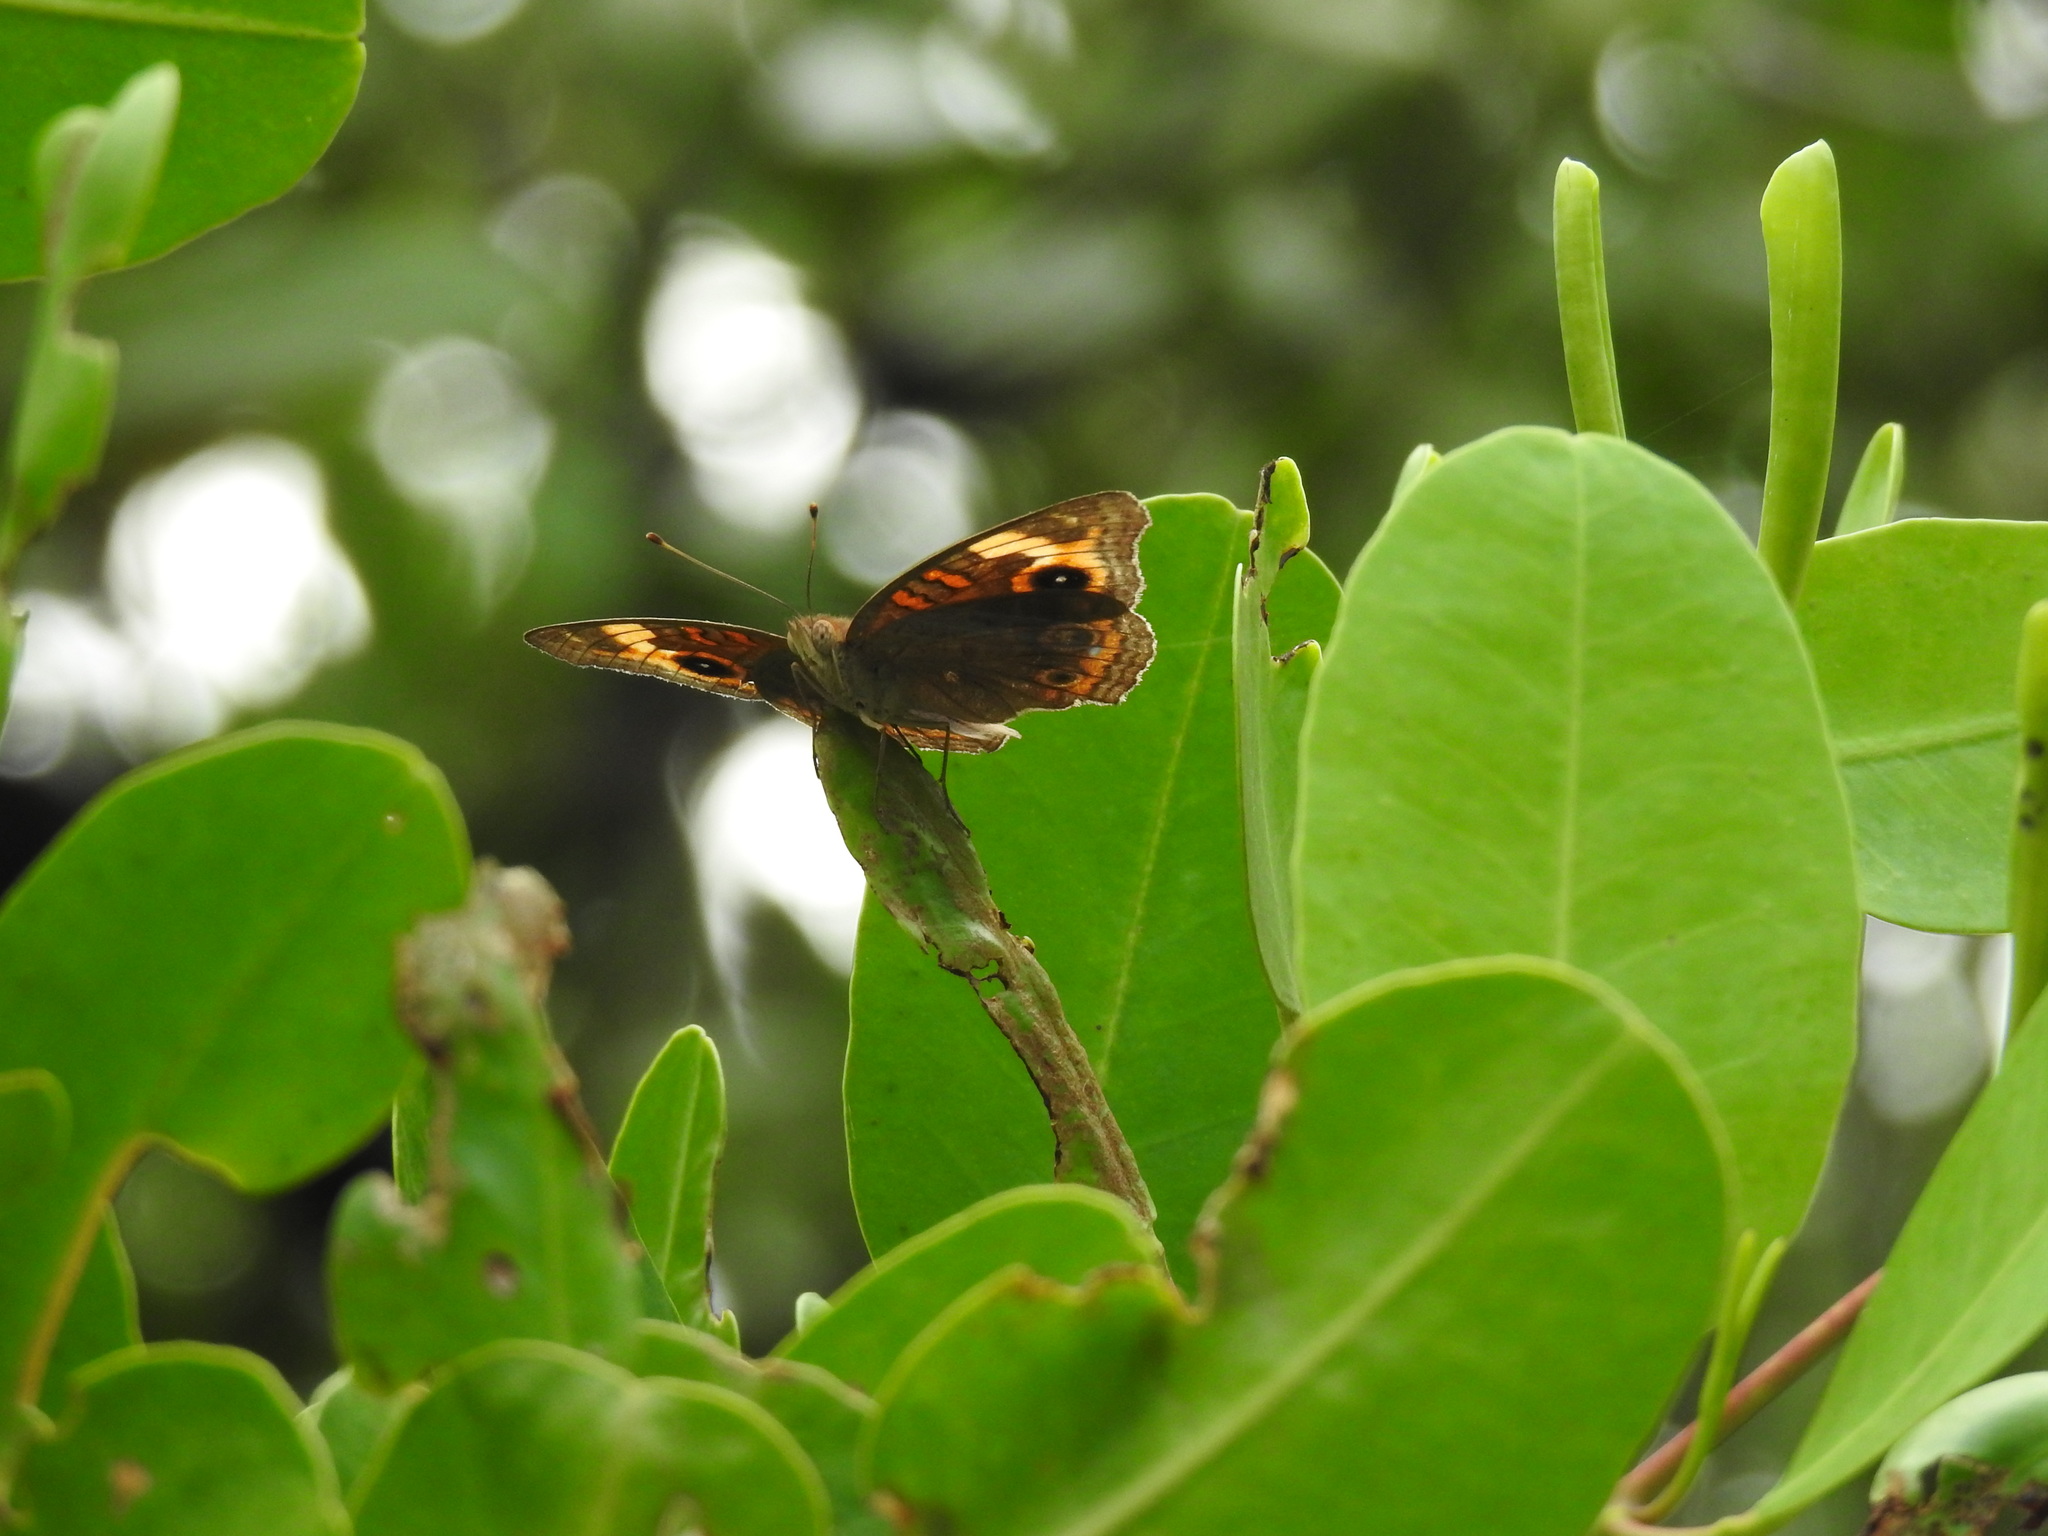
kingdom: Animalia
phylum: Arthropoda
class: Insecta
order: Lepidoptera
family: Nymphalidae
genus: Junonia
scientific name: Junonia neildi
